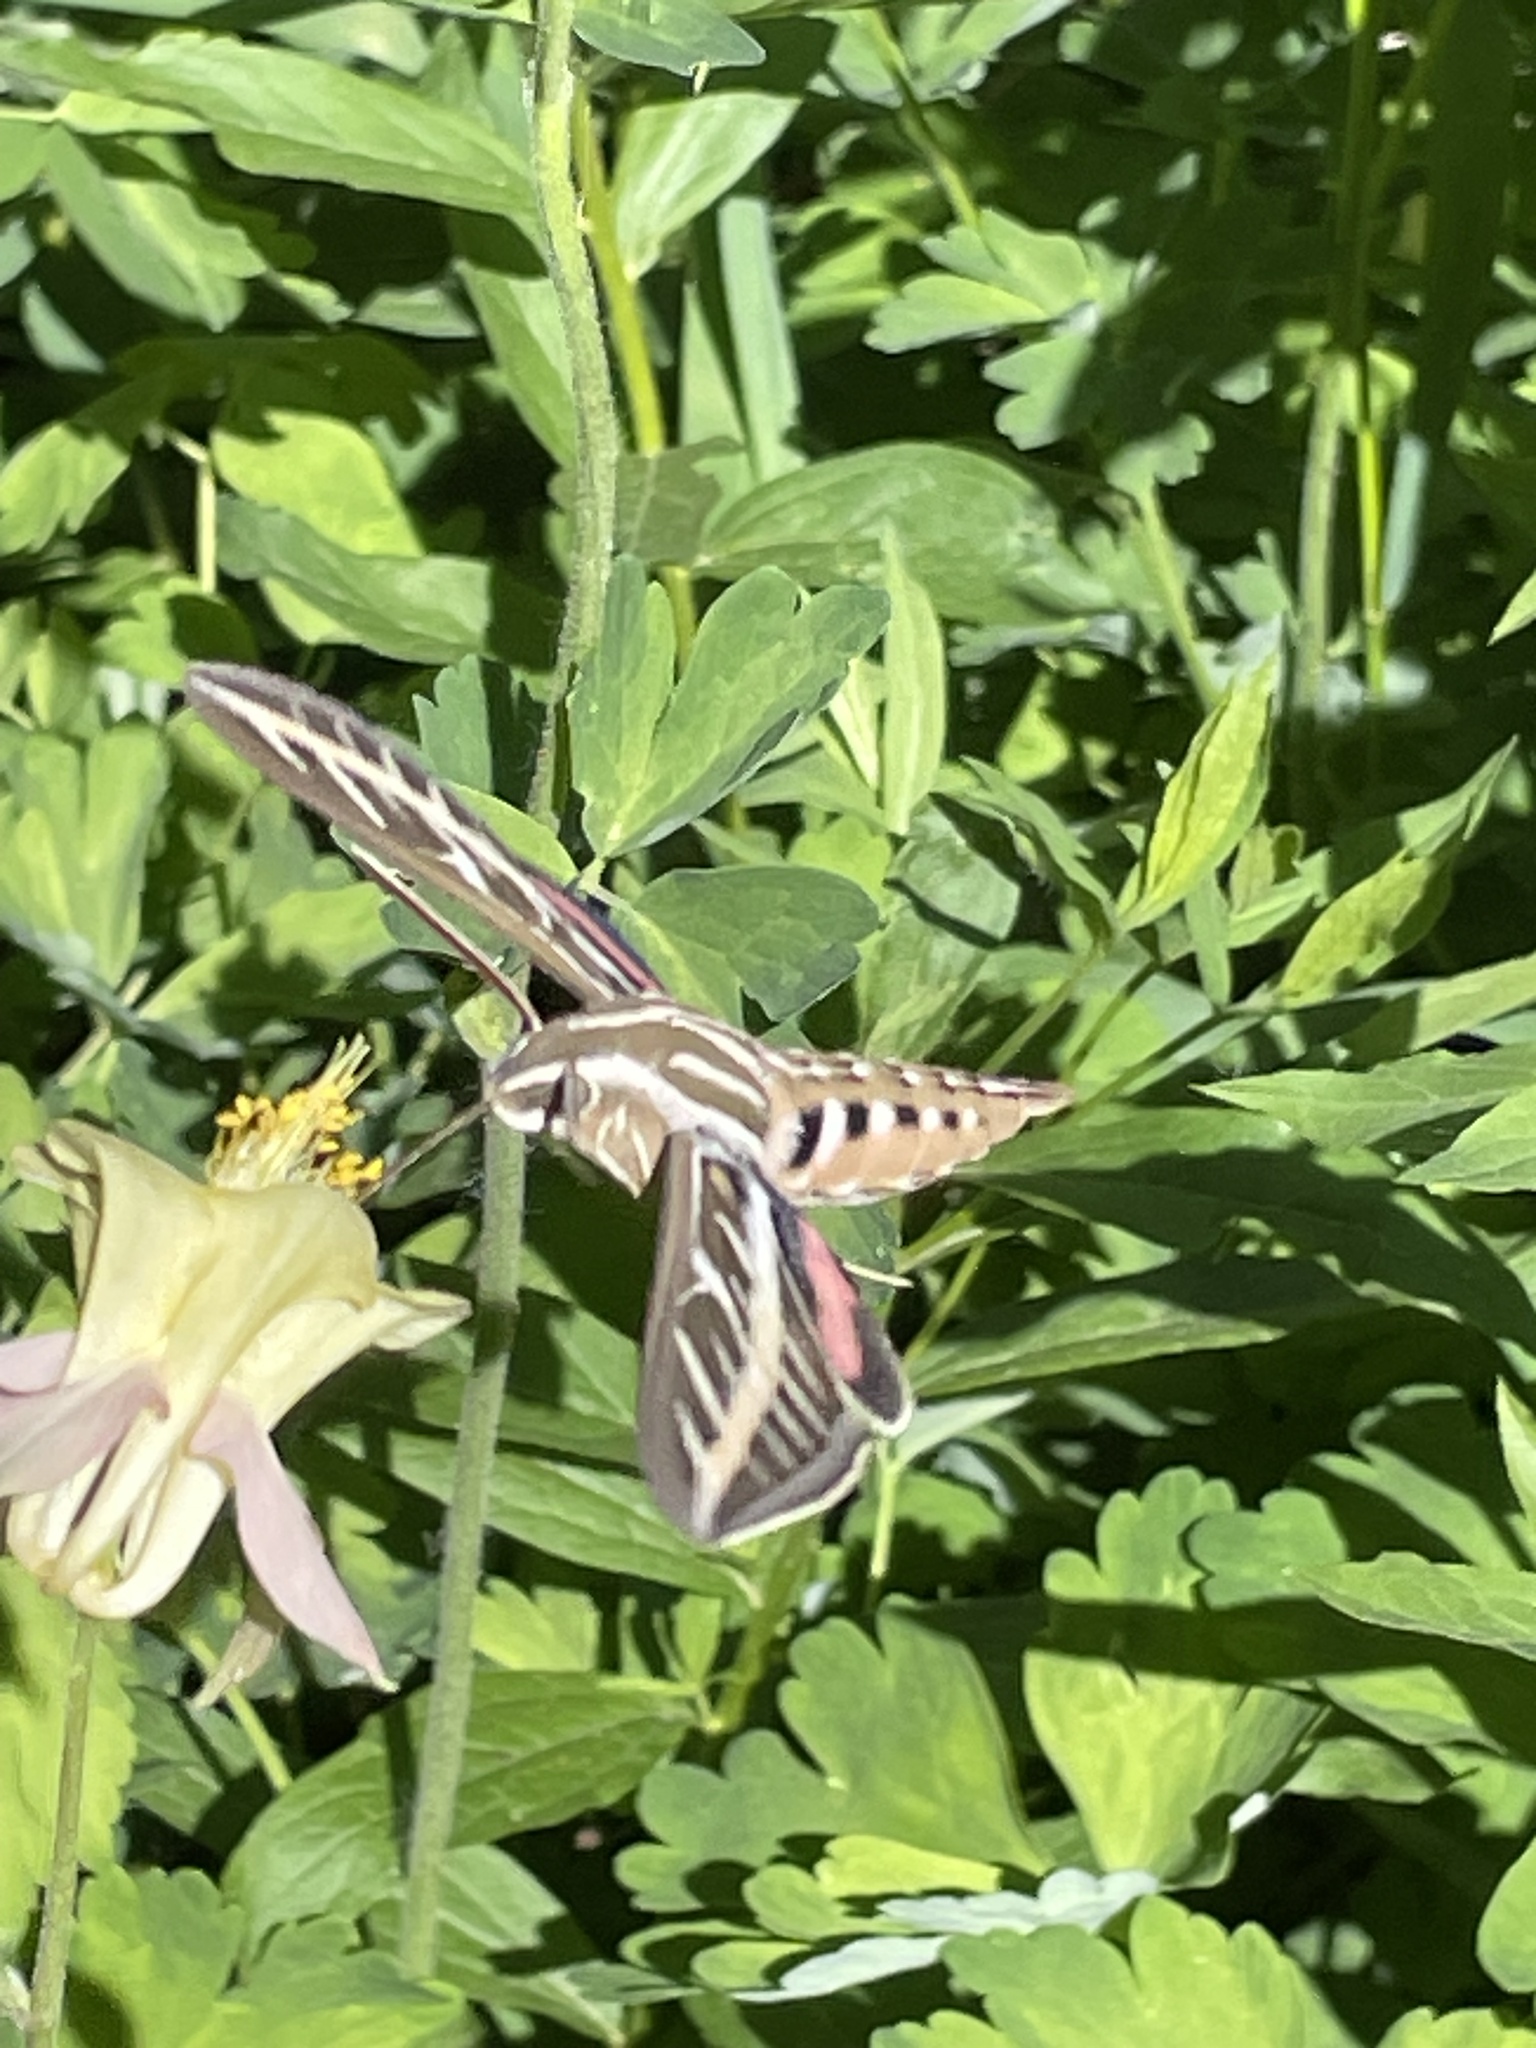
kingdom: Animalia
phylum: Arthropoda
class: Insecta
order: Lepidoptera
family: Sphingidae
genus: Hyles
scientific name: Hyles lineata
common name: White-lined sphinx
